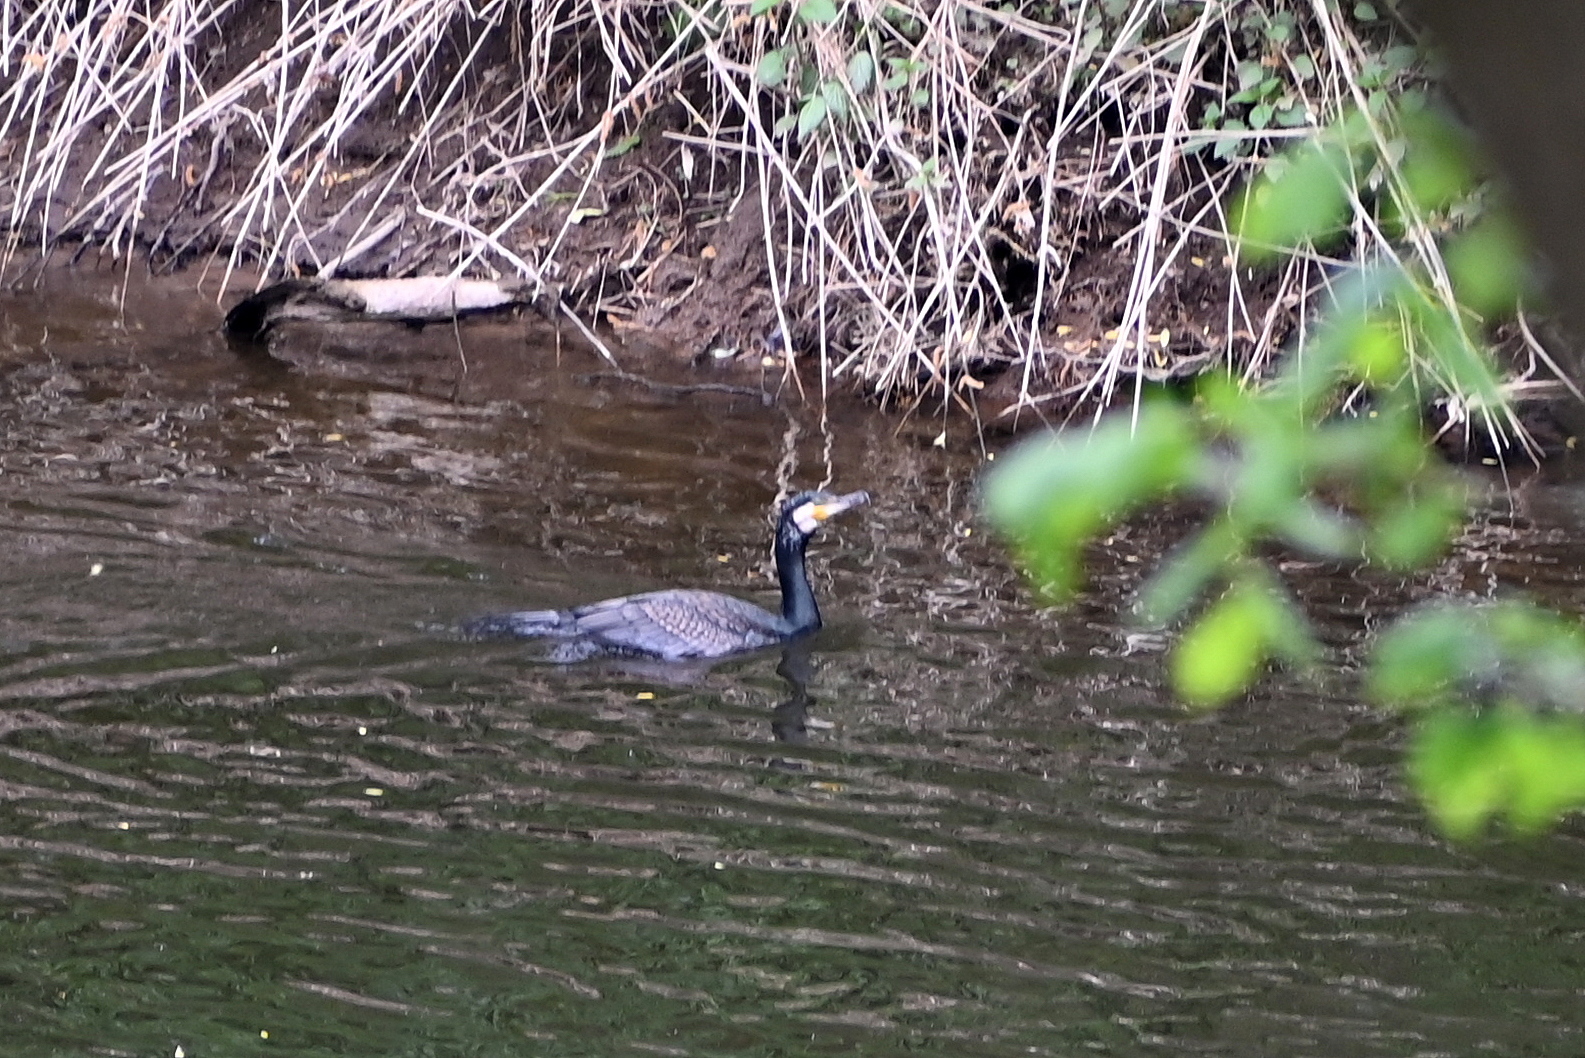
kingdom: Animalia
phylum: Chordata
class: Aves
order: Suliformes
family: Phalacrocoracidae
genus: Phalacrocorax
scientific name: Phalacrocorax carbo
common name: Great cormorant
